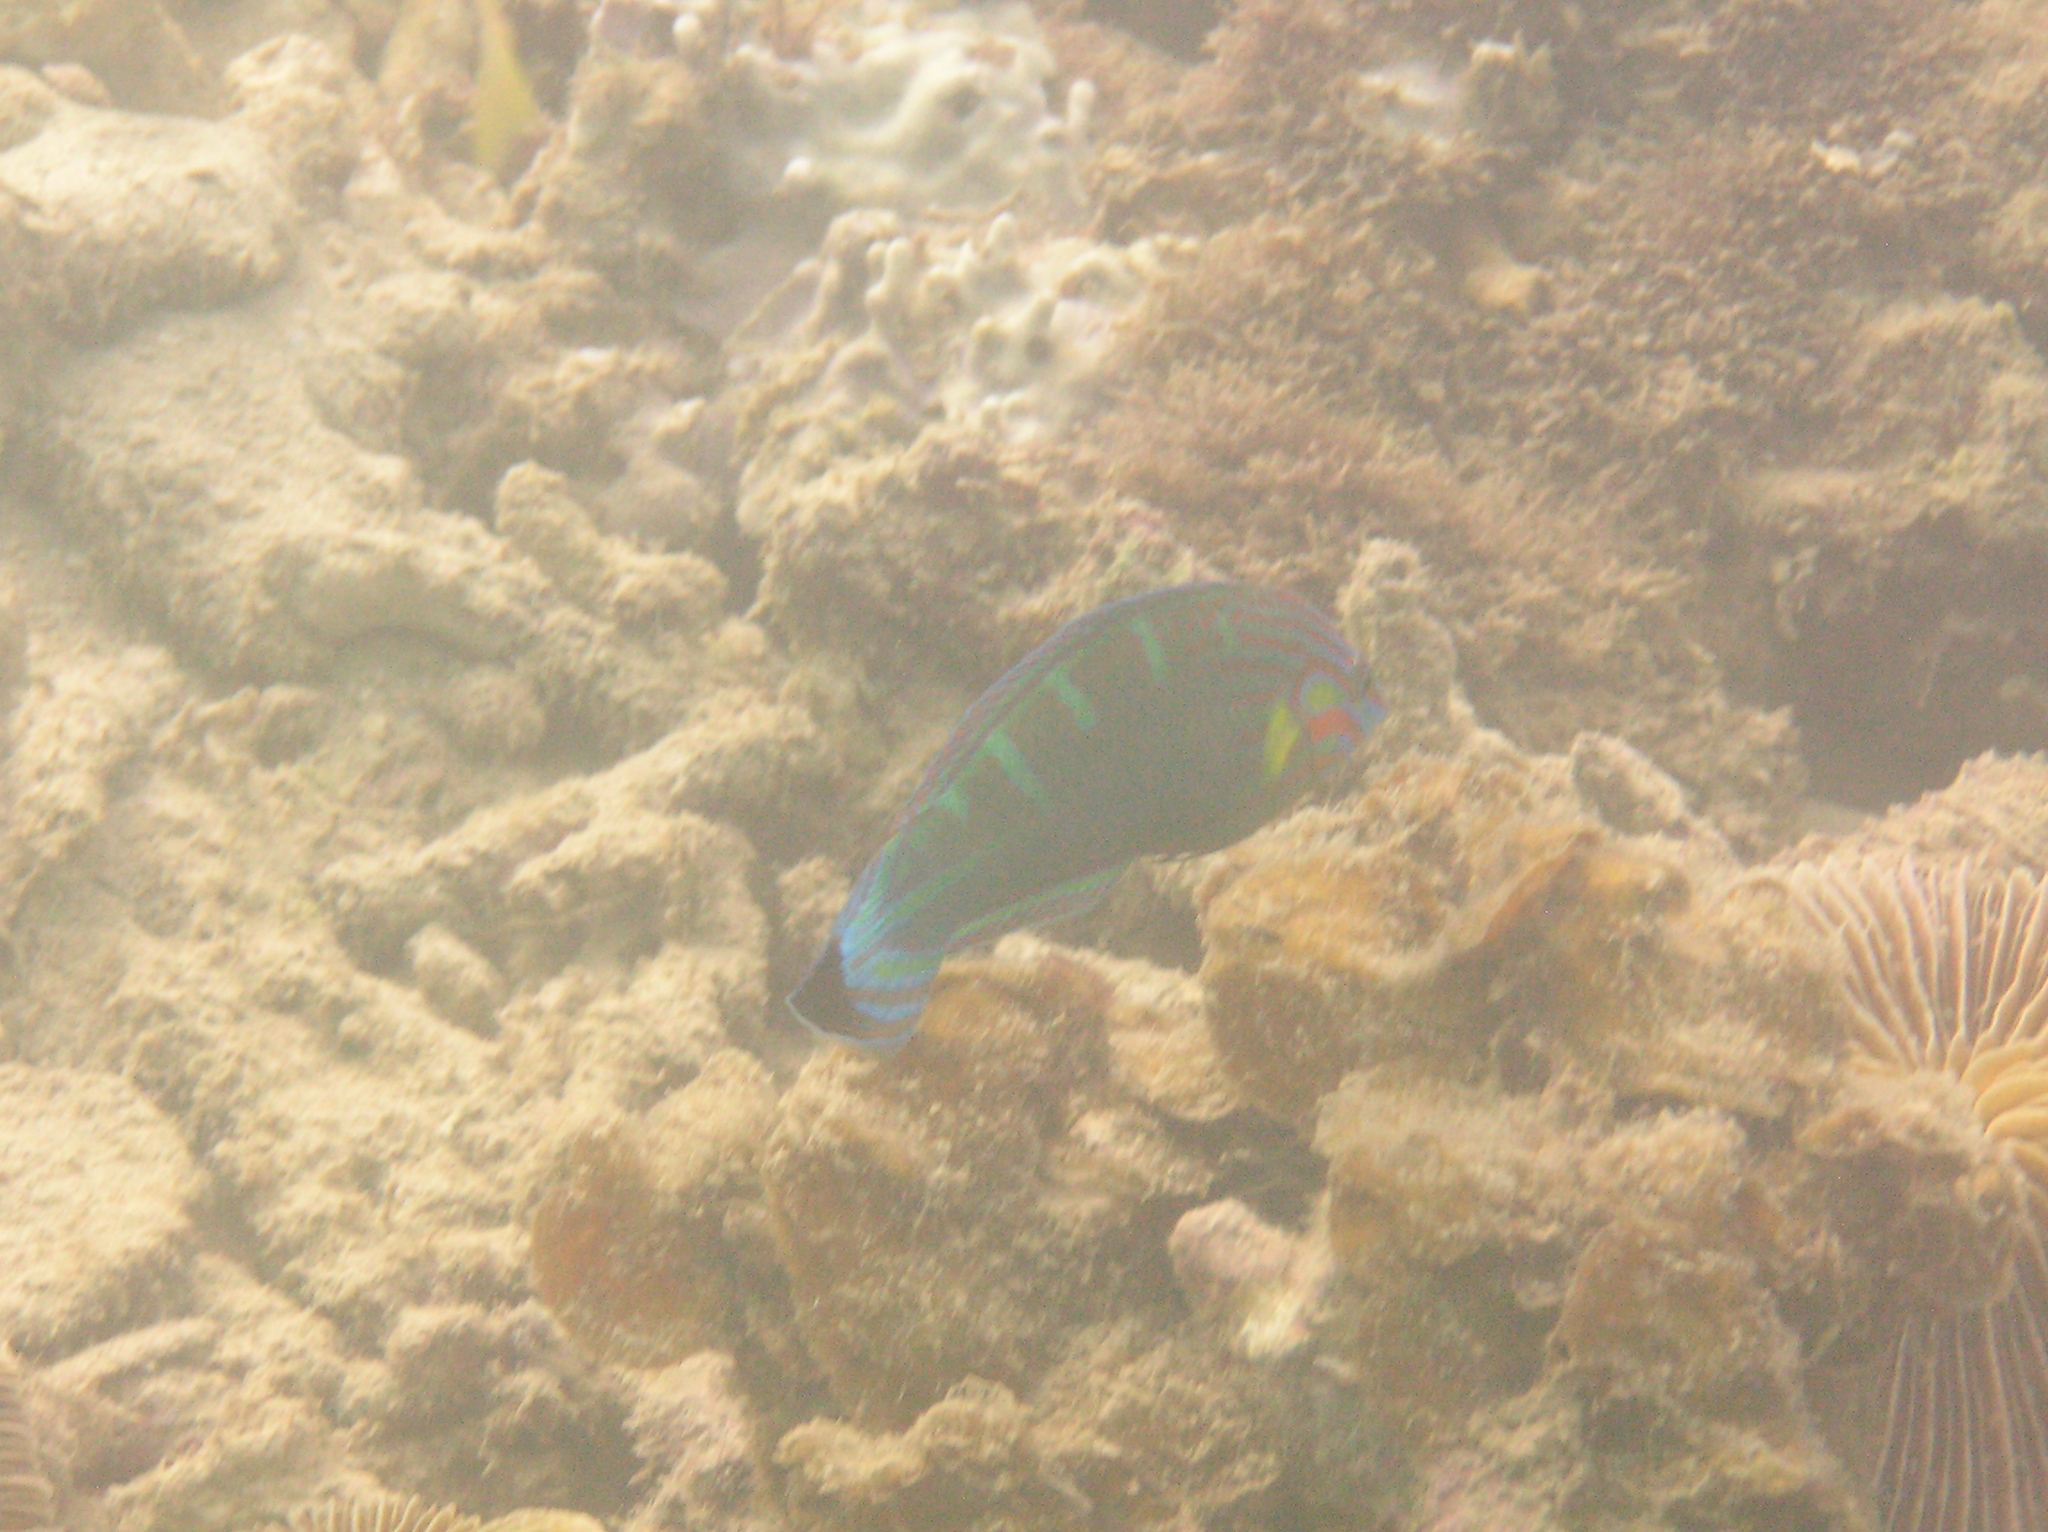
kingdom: Animalia
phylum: Chordata
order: Perciformes
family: Labridae
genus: Halichoeres
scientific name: Halichoeres melanurus
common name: Hoeven's wrasse
